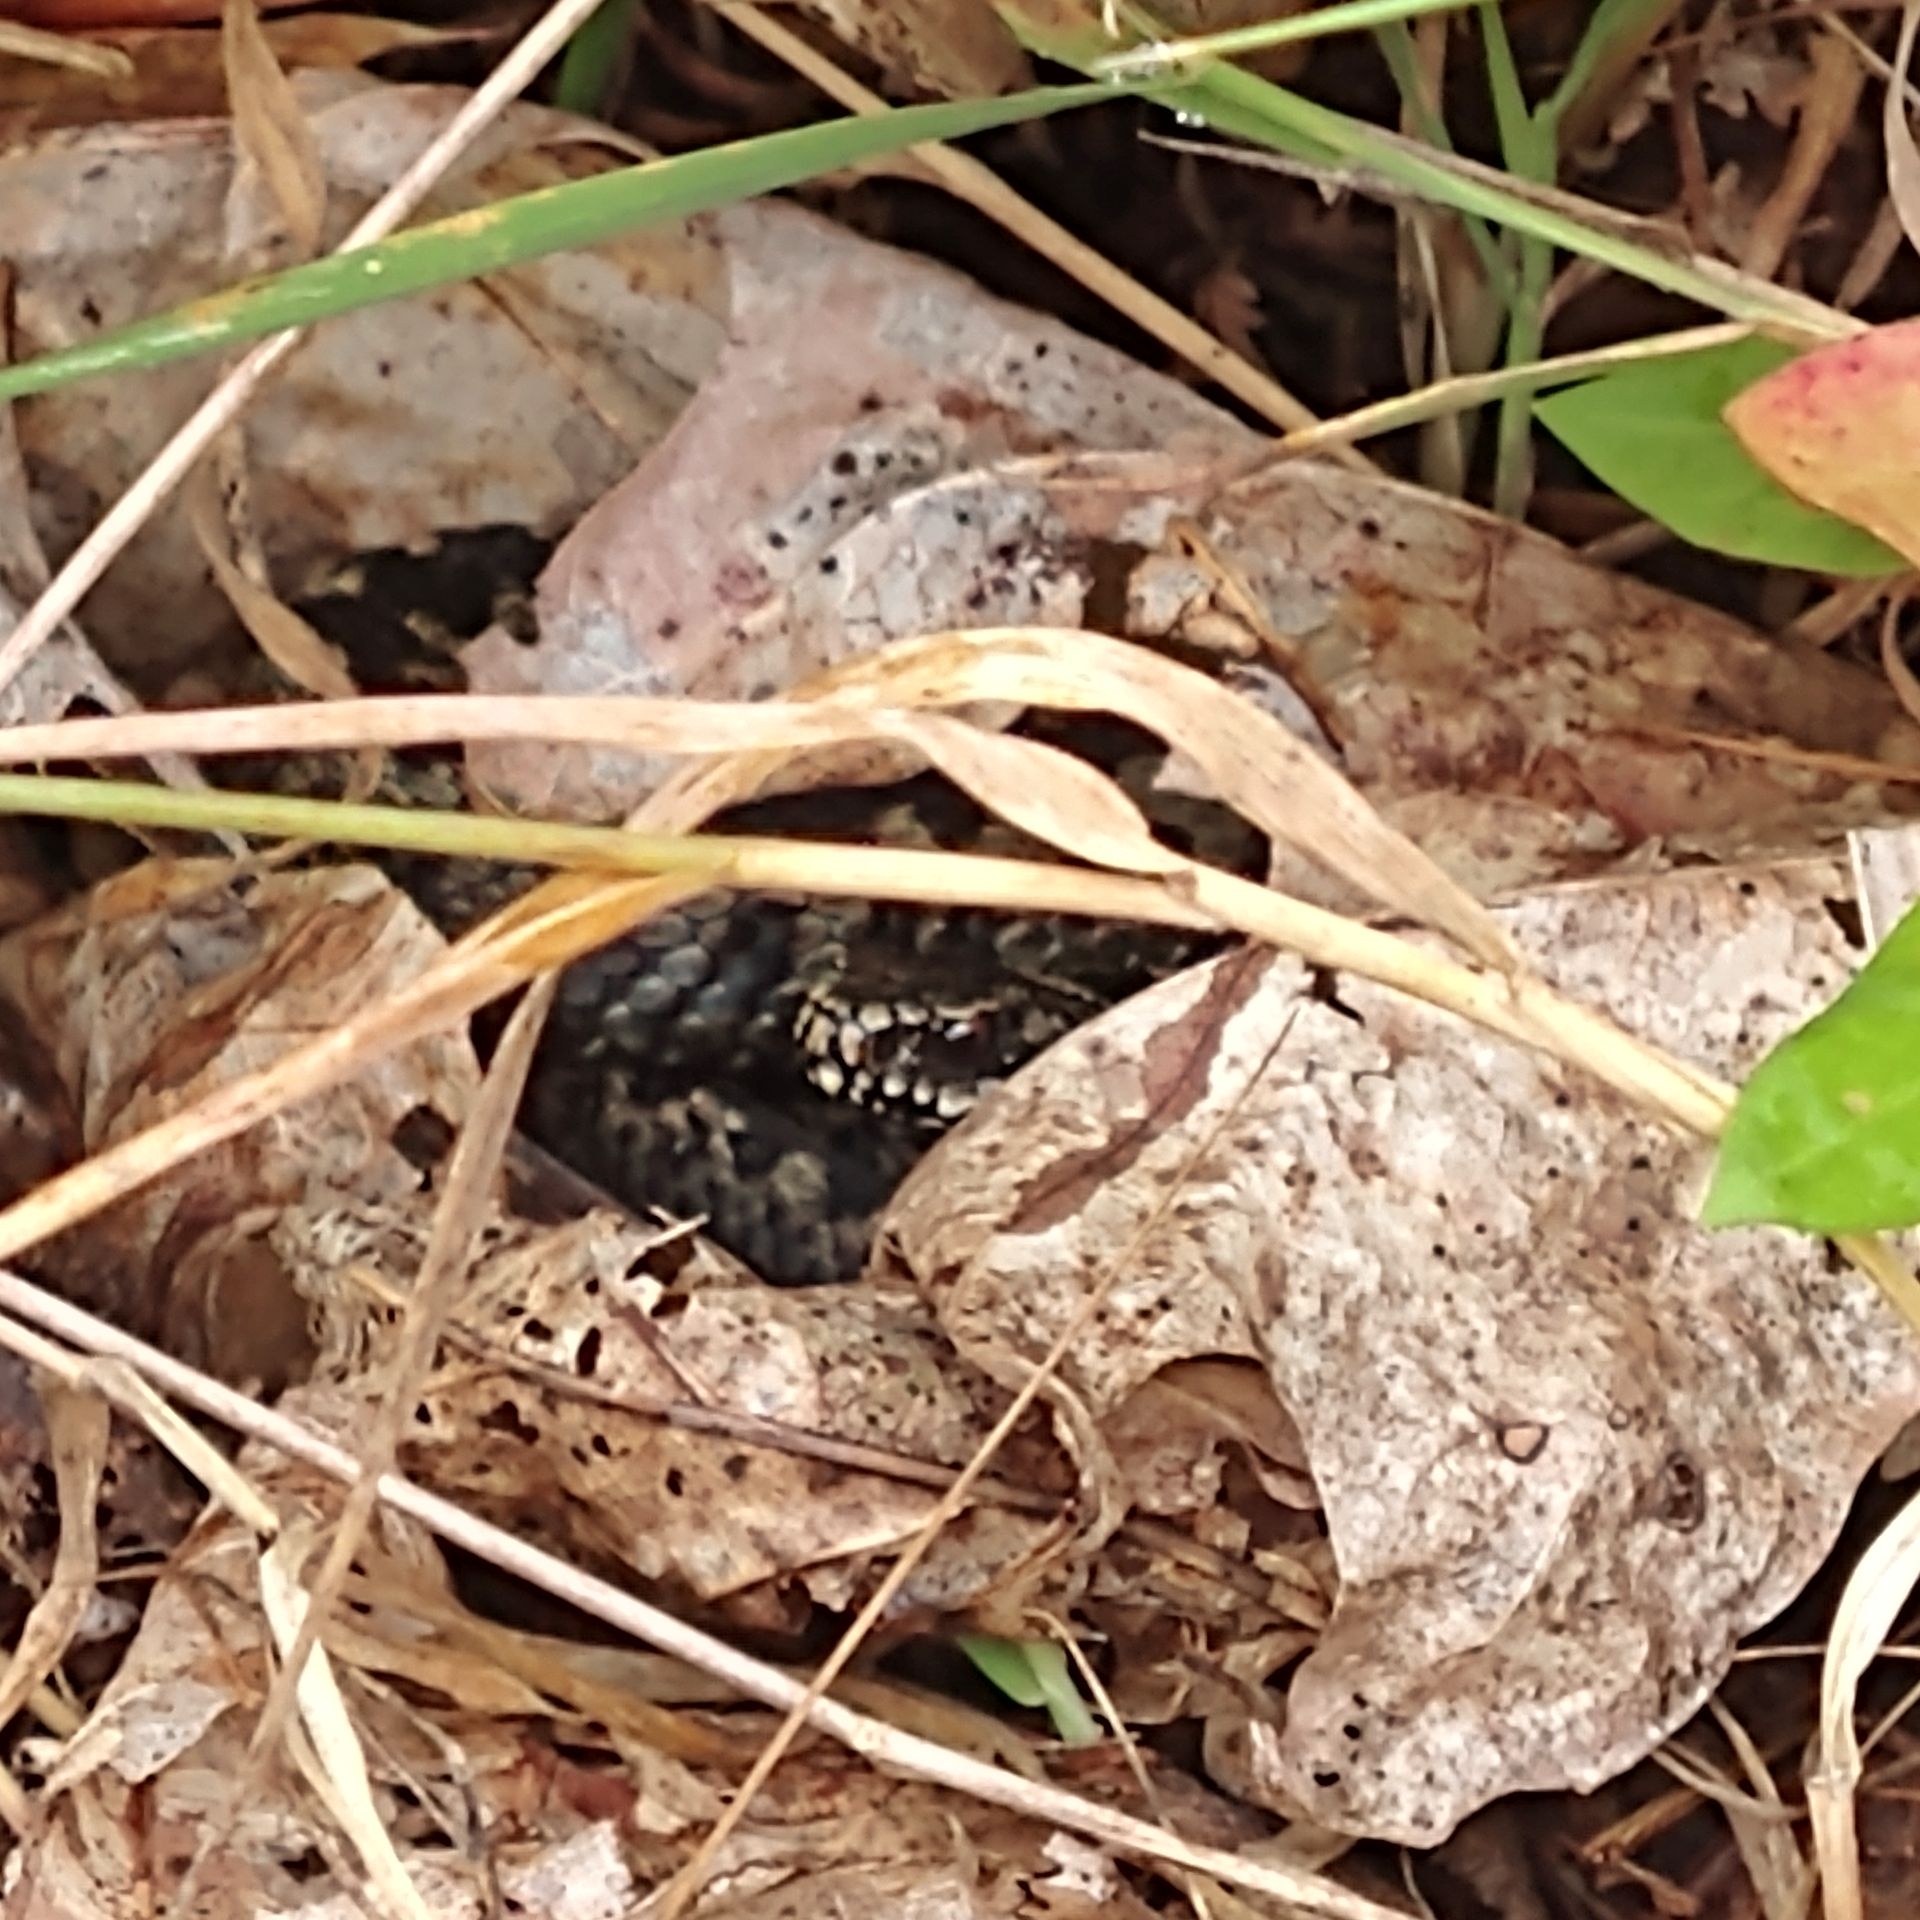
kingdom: Animalia
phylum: Chordata
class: Squamata
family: Viperidae
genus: Vipera
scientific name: Vipera berus
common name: Adder
